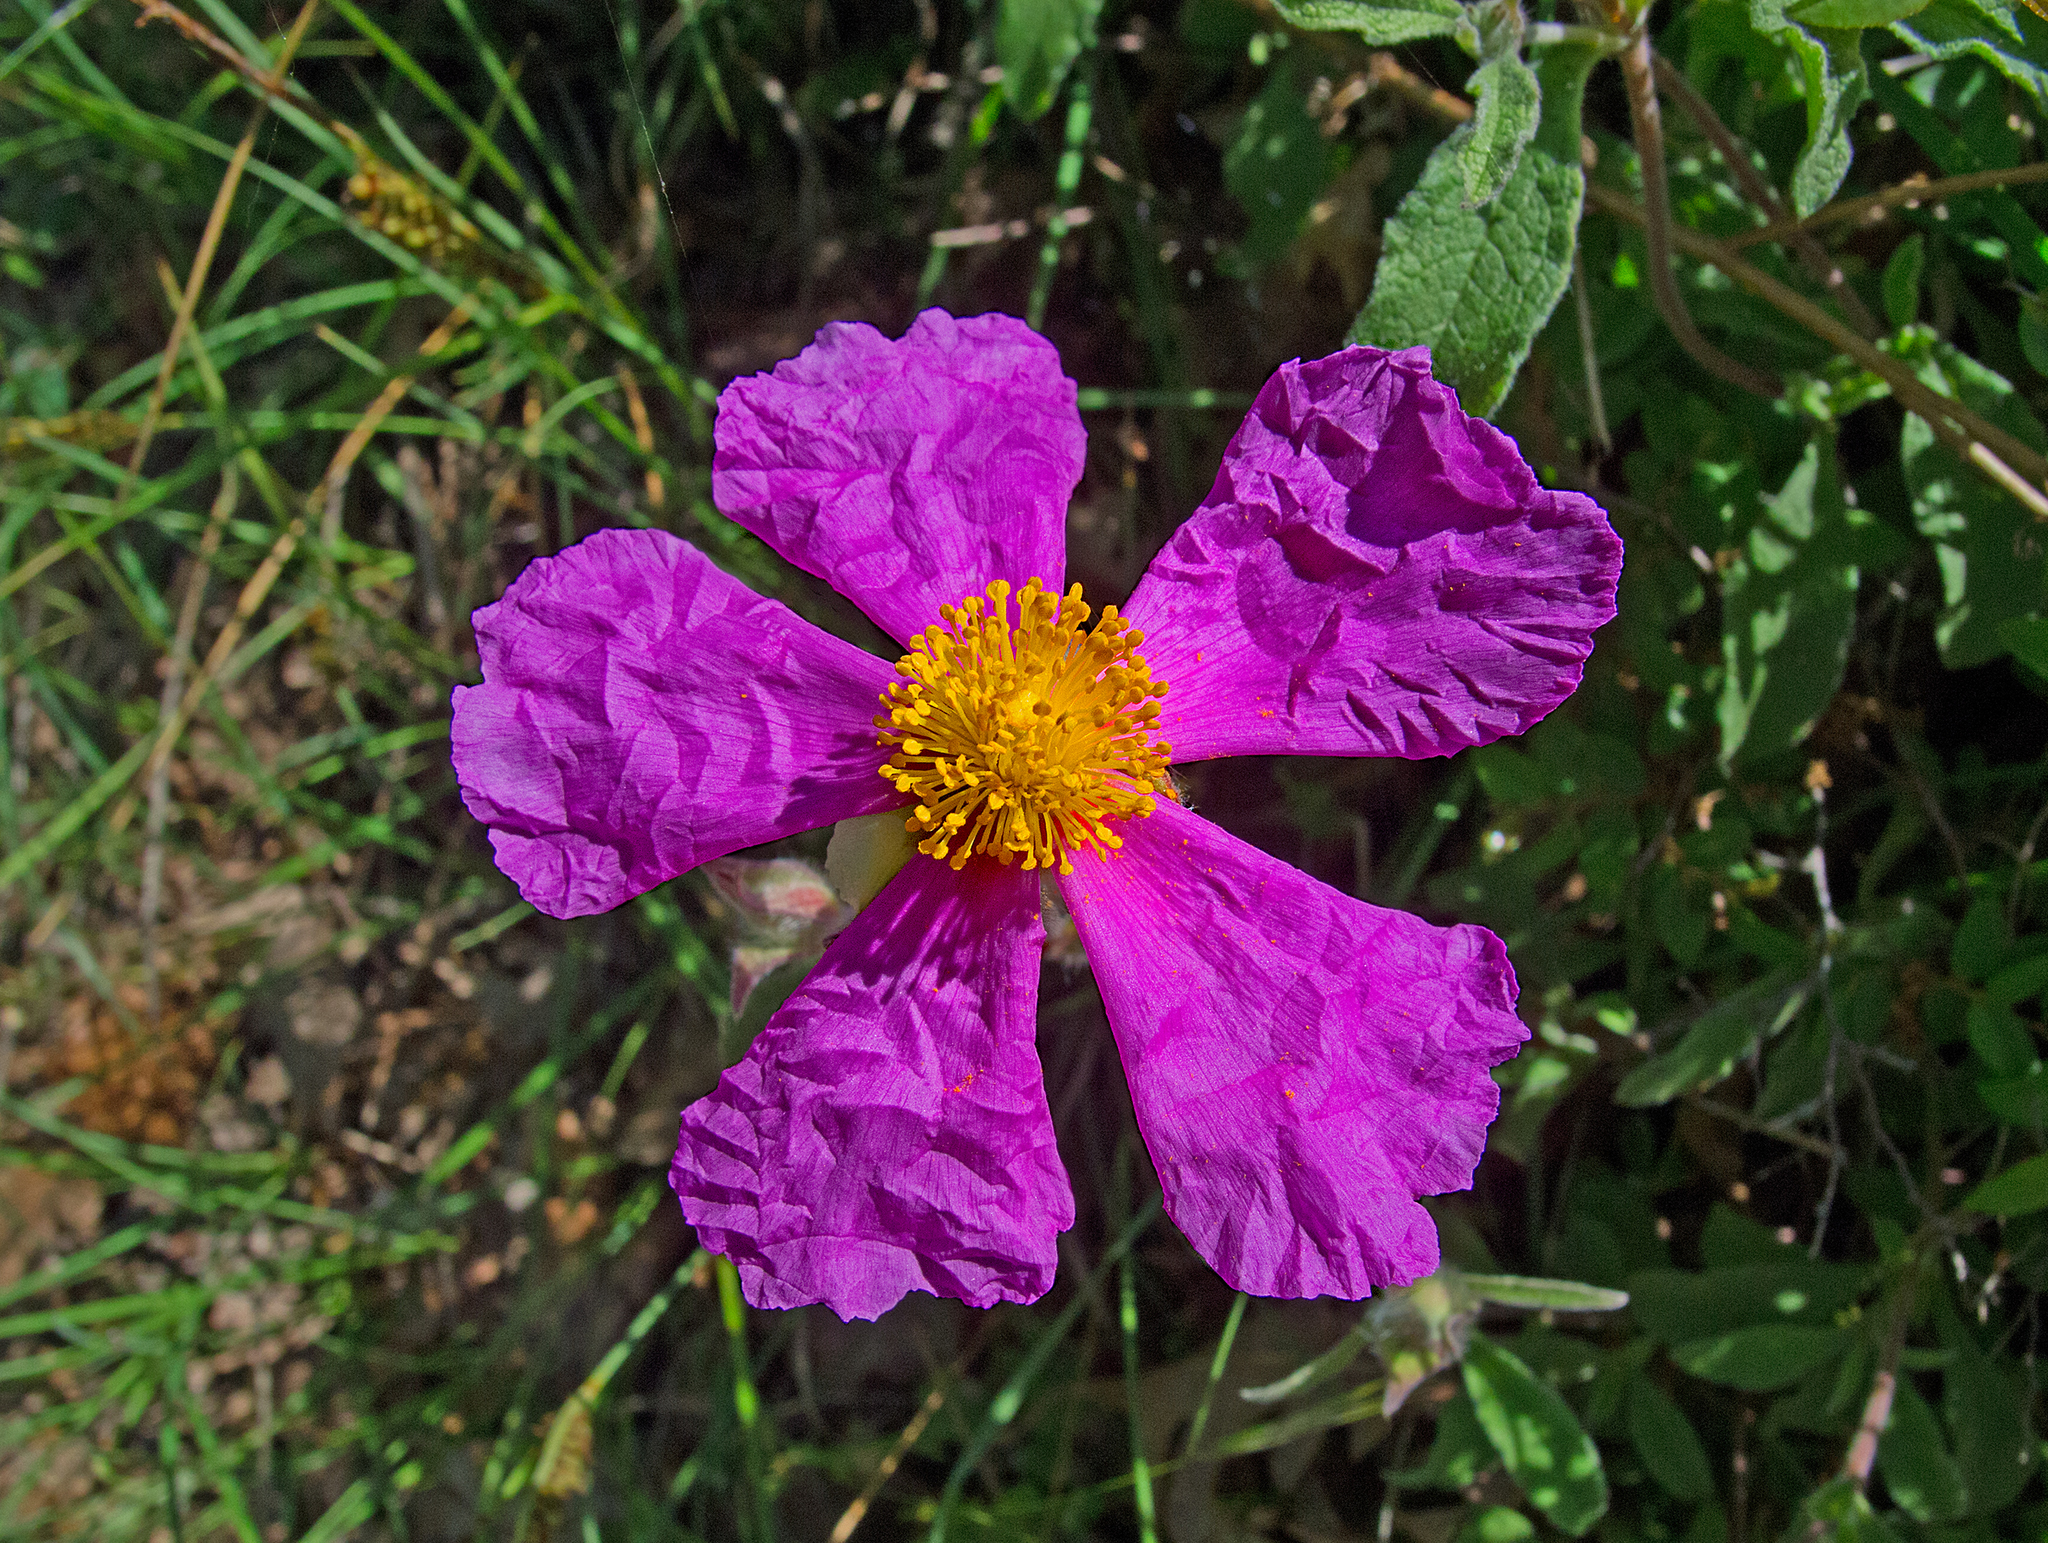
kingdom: Plantae
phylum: Tracheophyta
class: Magnoliopsida
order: Malvales
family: Cistaceae
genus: Cistus
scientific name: Cistus creticus
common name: Cretan rockrose
